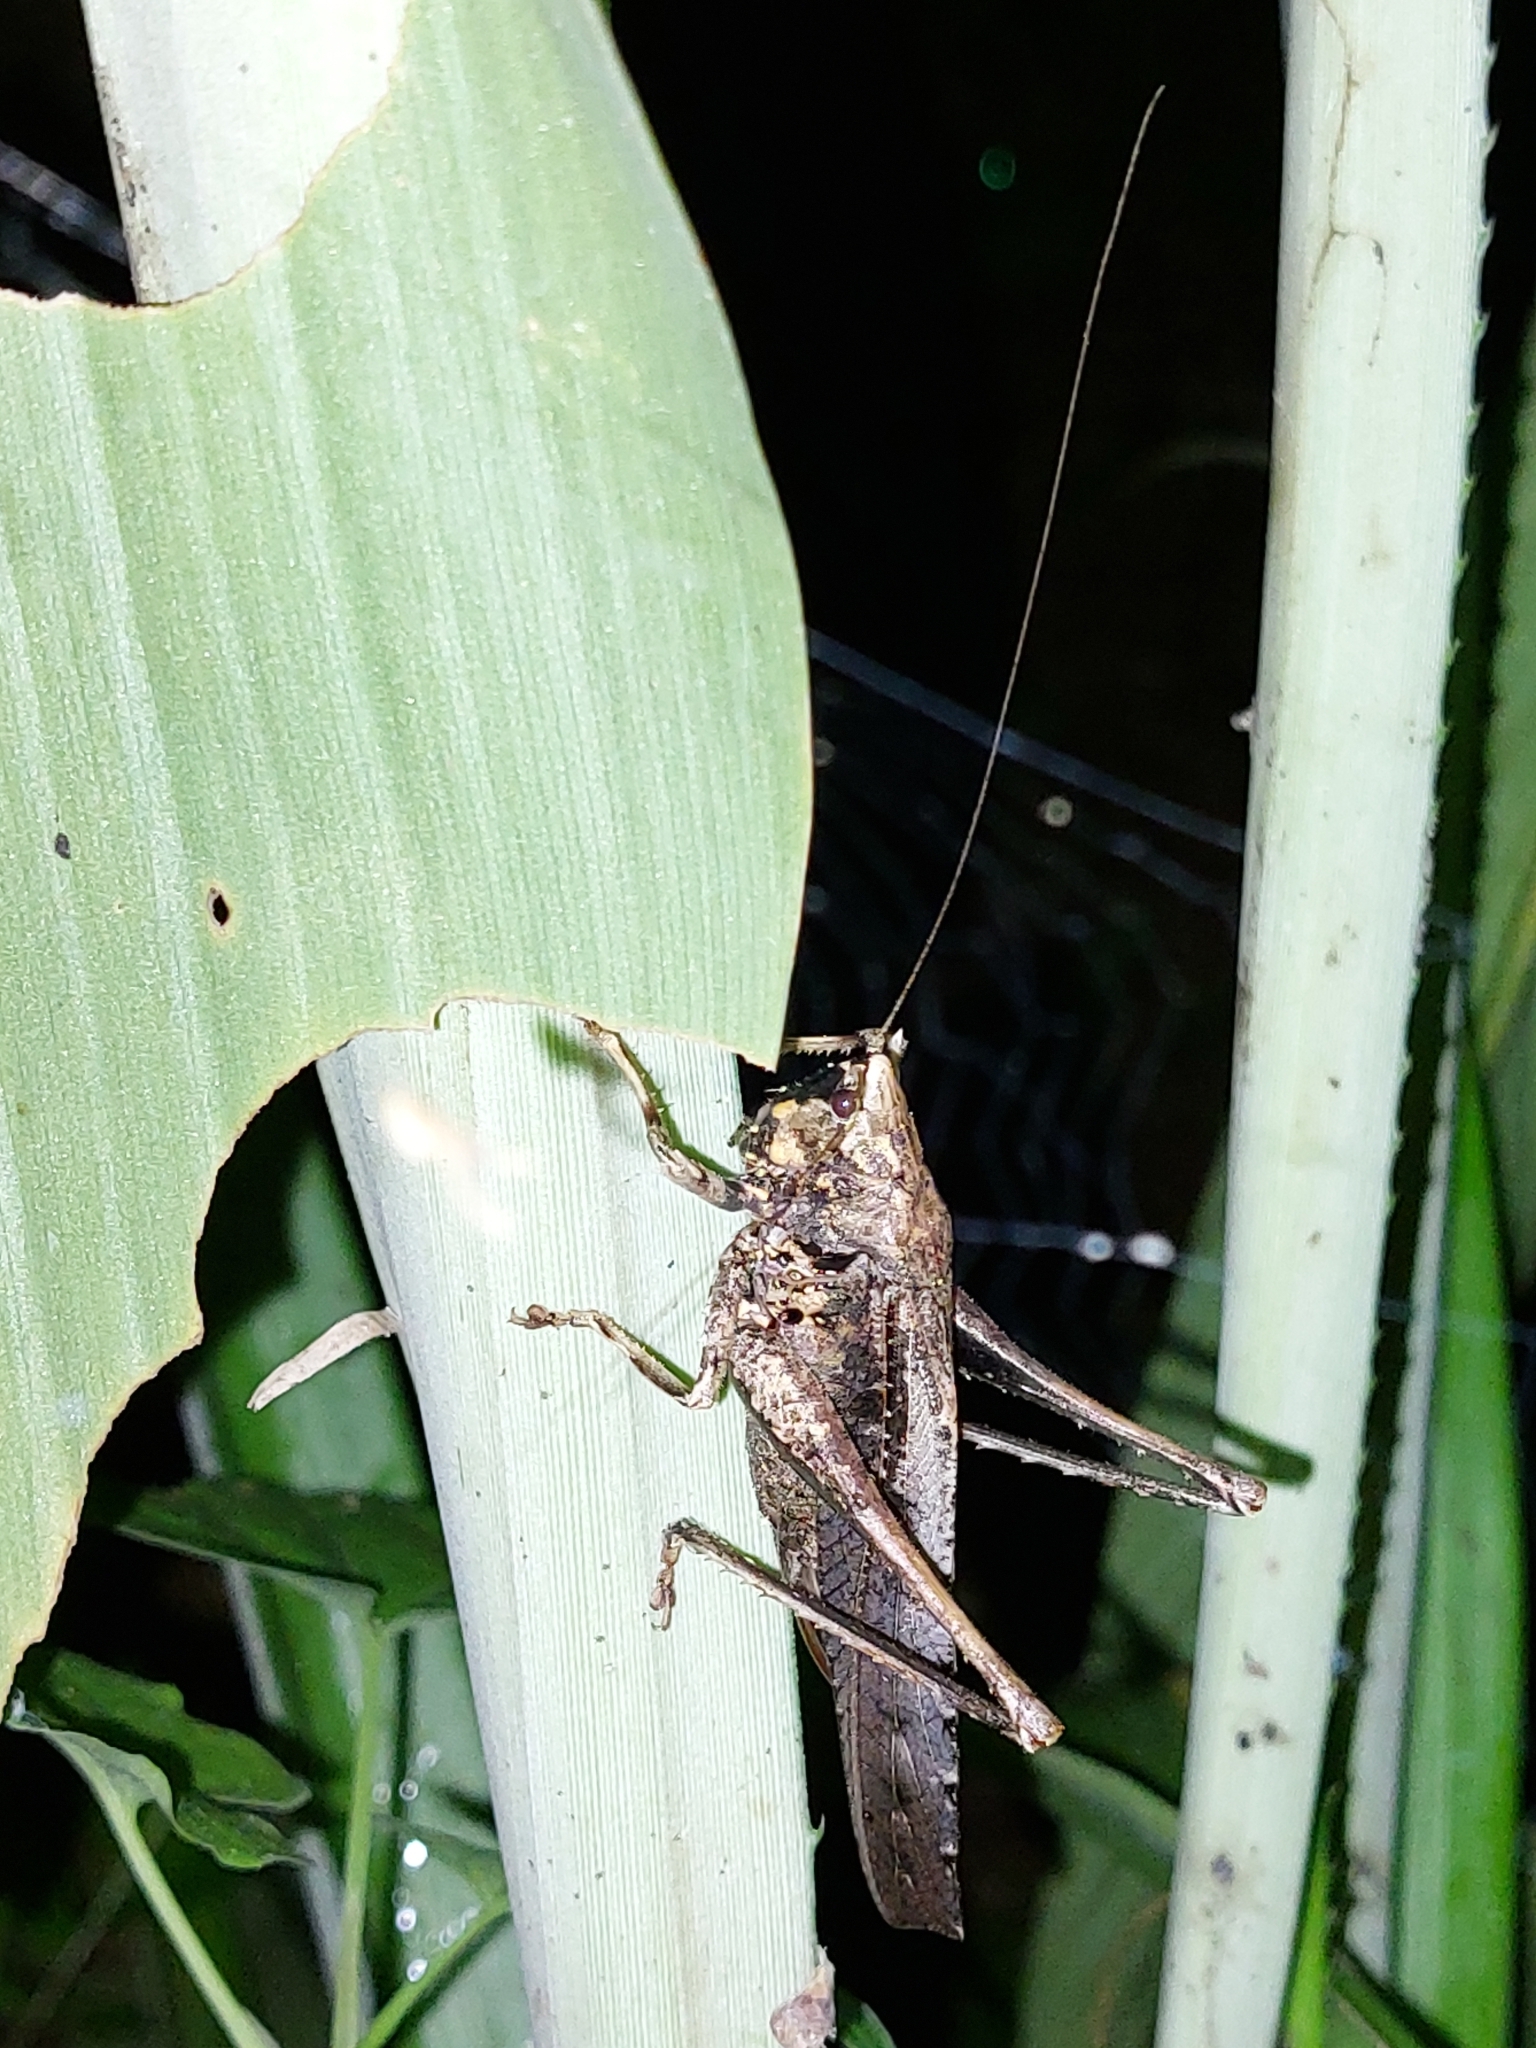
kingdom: Animalia
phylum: Arthropoda
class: Insecta
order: Orthoptera
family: Tettigoniidae
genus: Eppia
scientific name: Eppia truncatipennis
